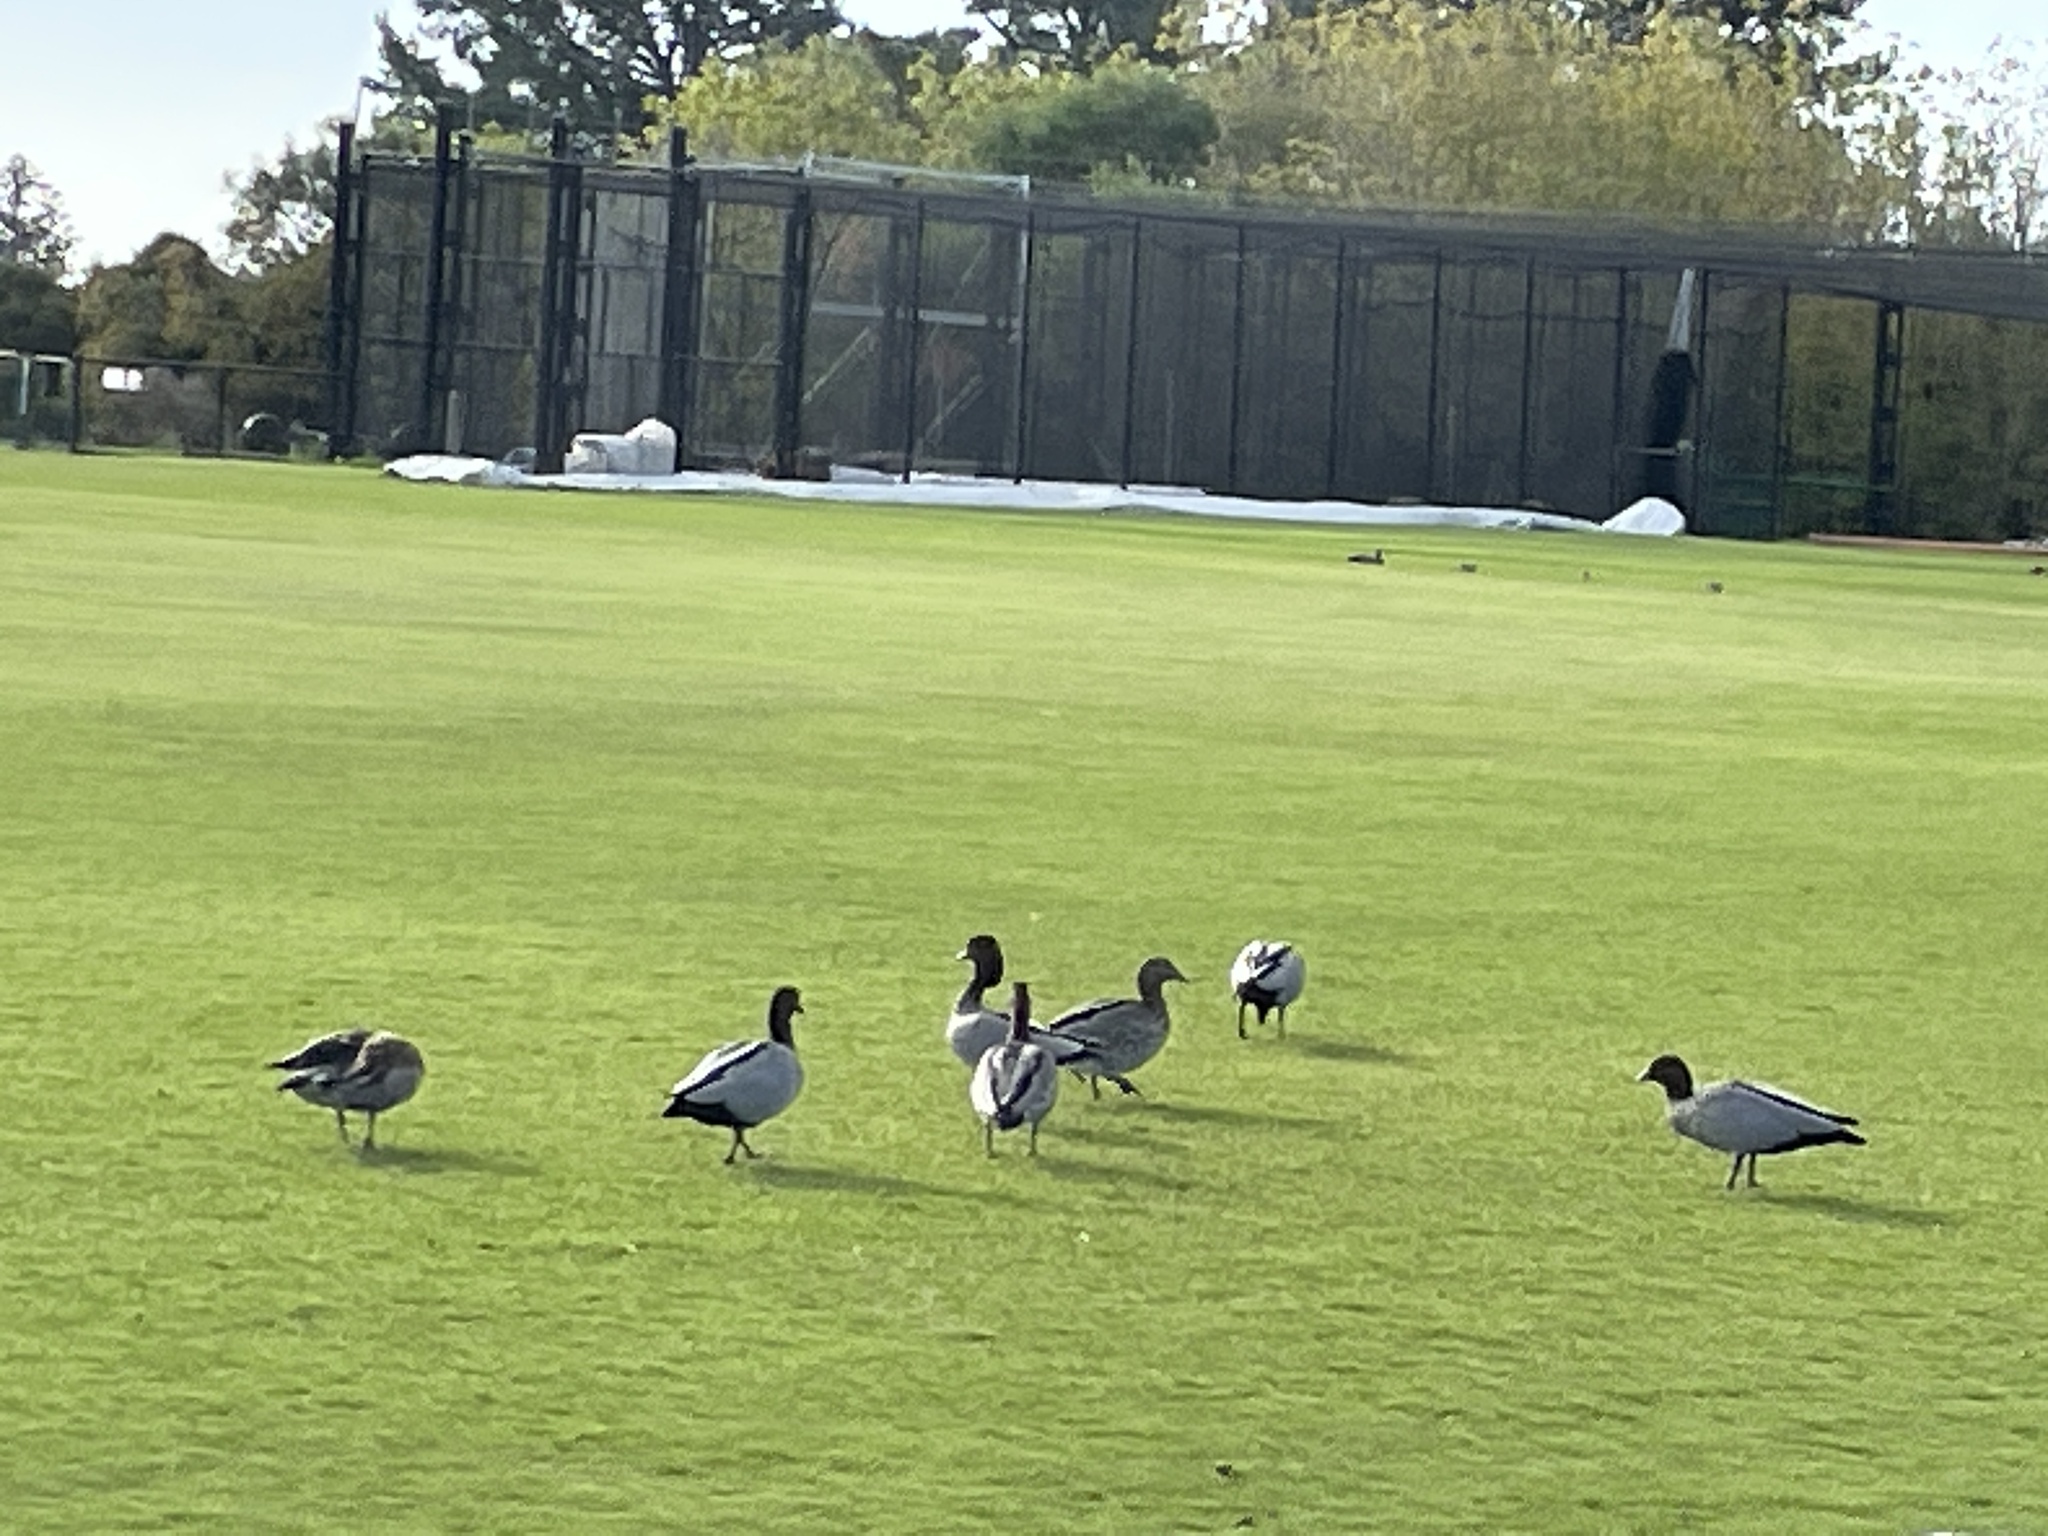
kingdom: Animalia
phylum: Chordata
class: Aves
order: Anseriformes
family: Anatidae
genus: Chenonetta
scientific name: Chenonetta jubata
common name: Maned duck
